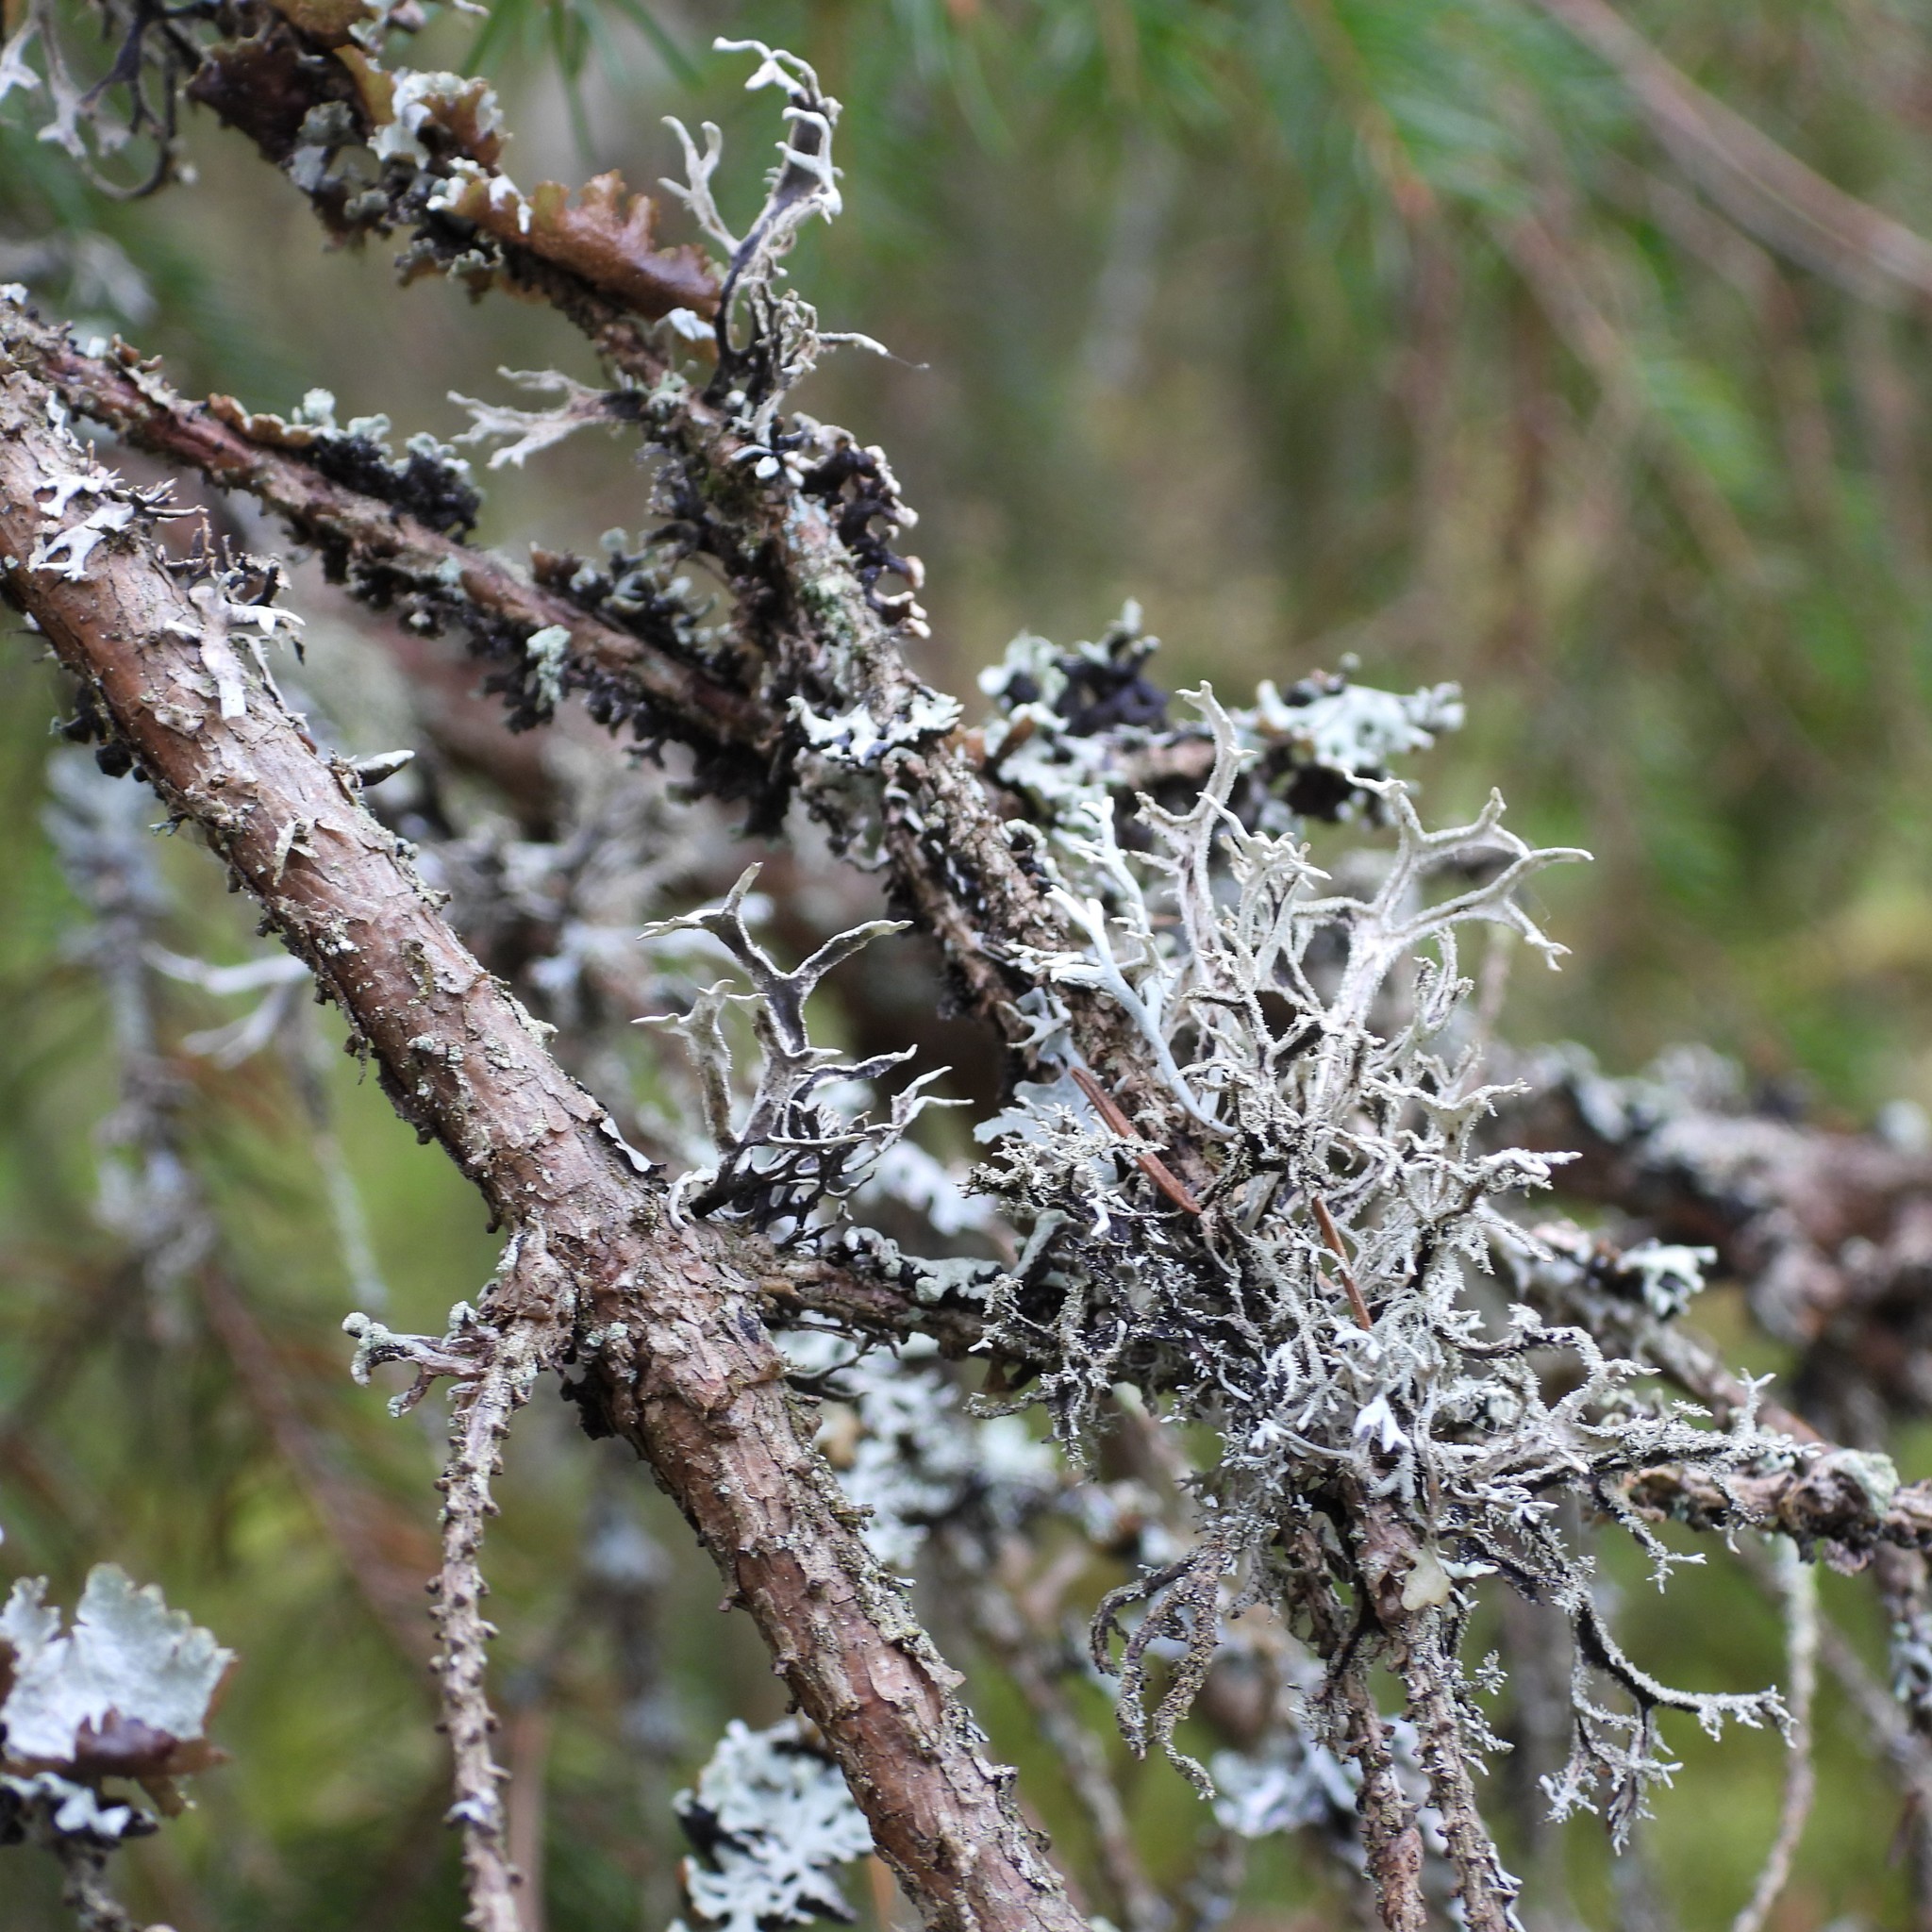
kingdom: Fungi
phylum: Ascomycota
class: Lecanoromycetes
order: Lecanorales
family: Parmeliaceae
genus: Pseudevernia
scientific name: Pseudevernia furfuracea
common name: Tree moss
